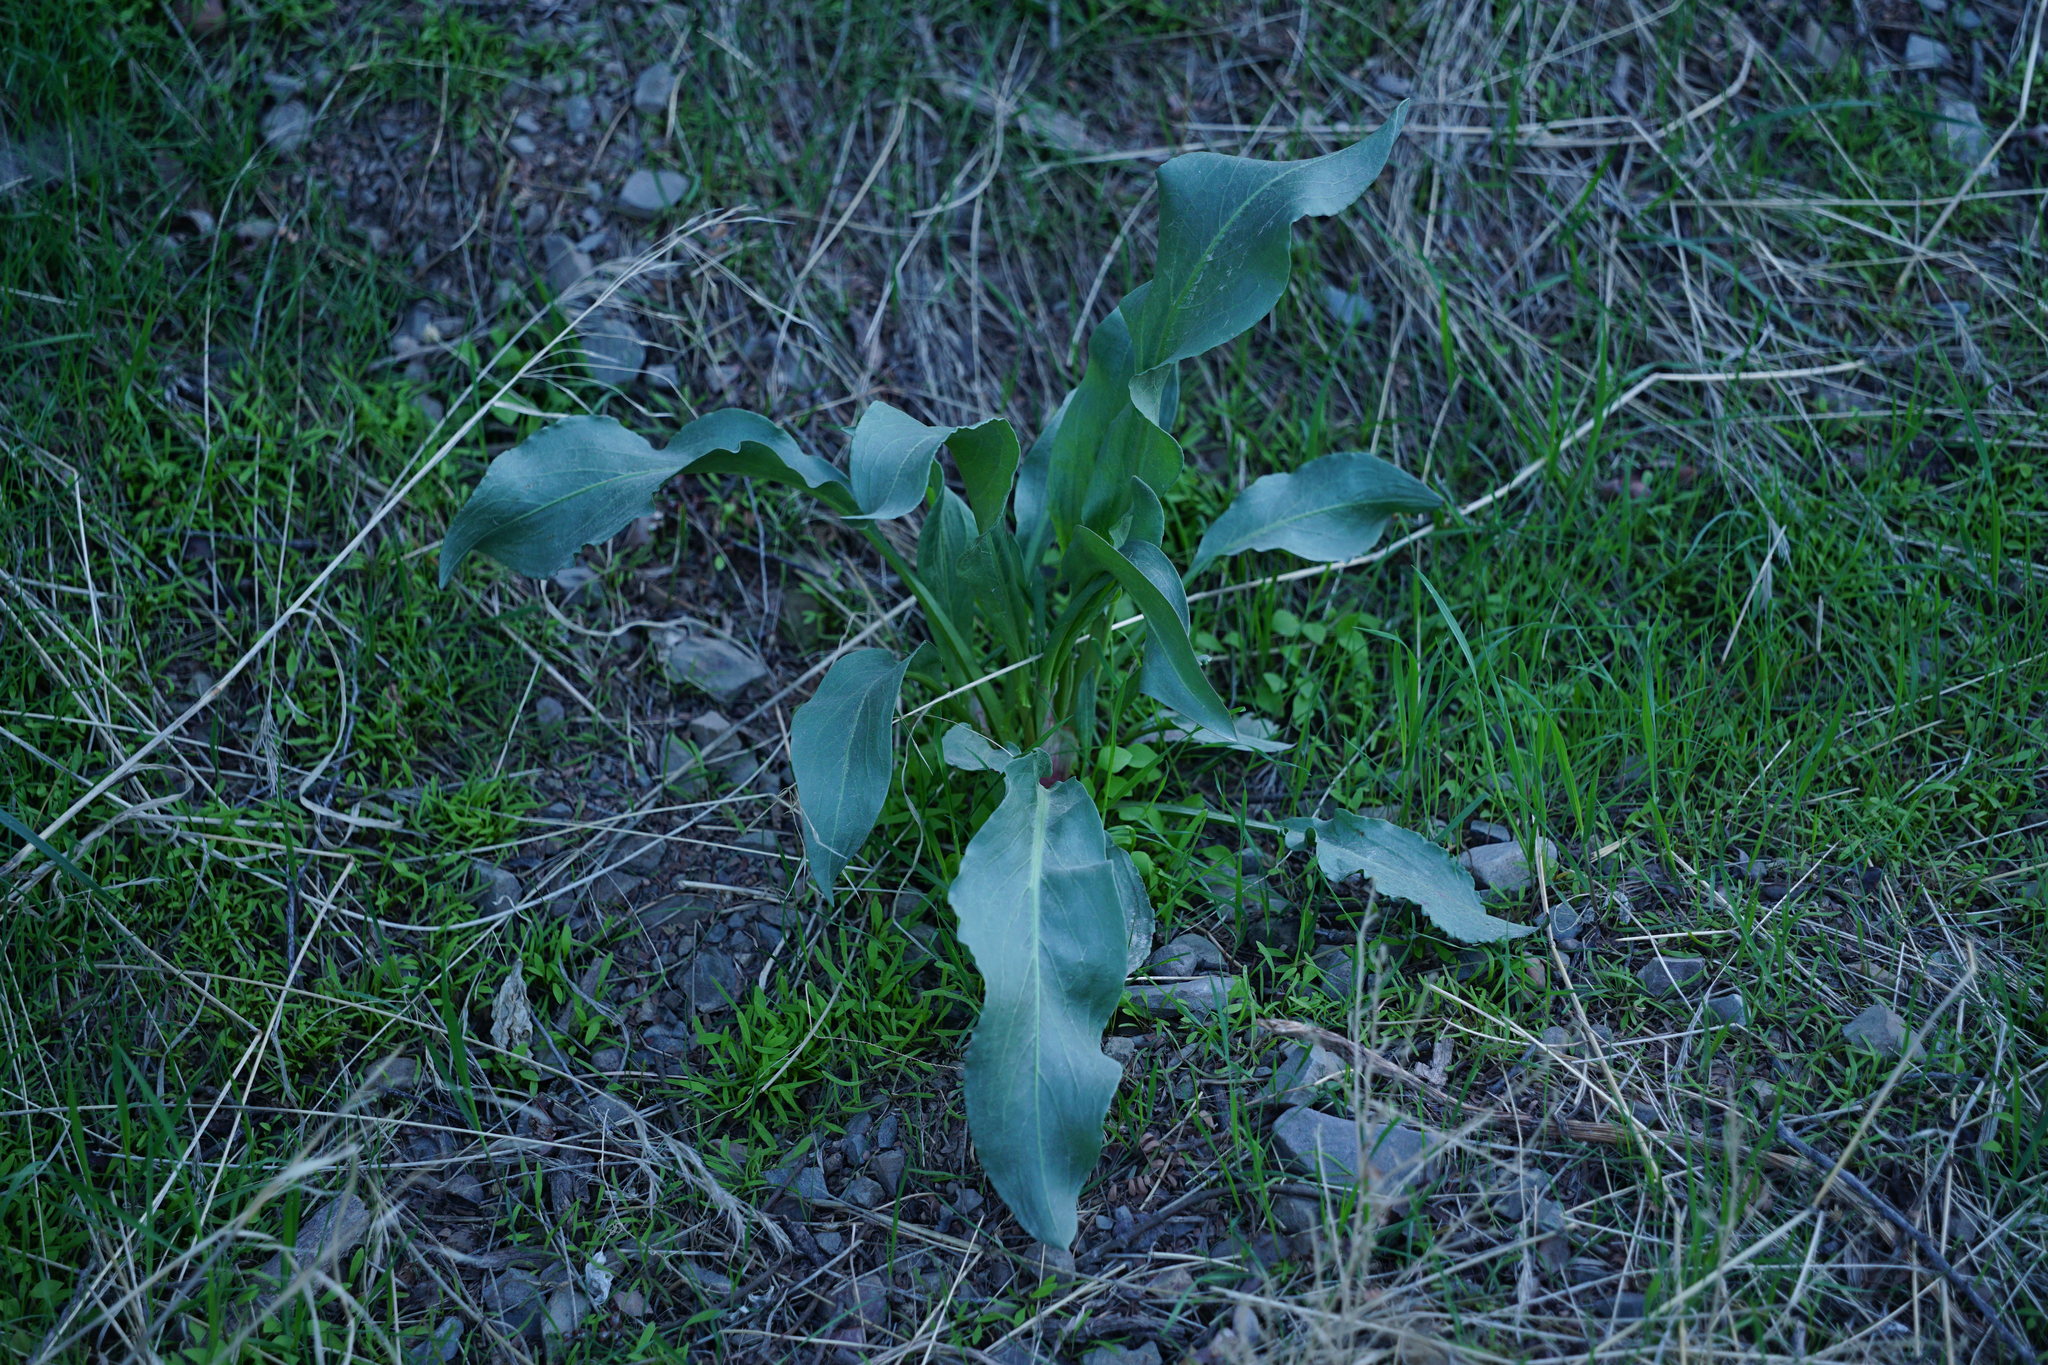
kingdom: Plantae
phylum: Tracheophyta
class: Magnoliopsida
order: Caryophyllales
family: Polygonaceae
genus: Rumex
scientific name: Rumex hymenosepalus
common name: Ganagra
